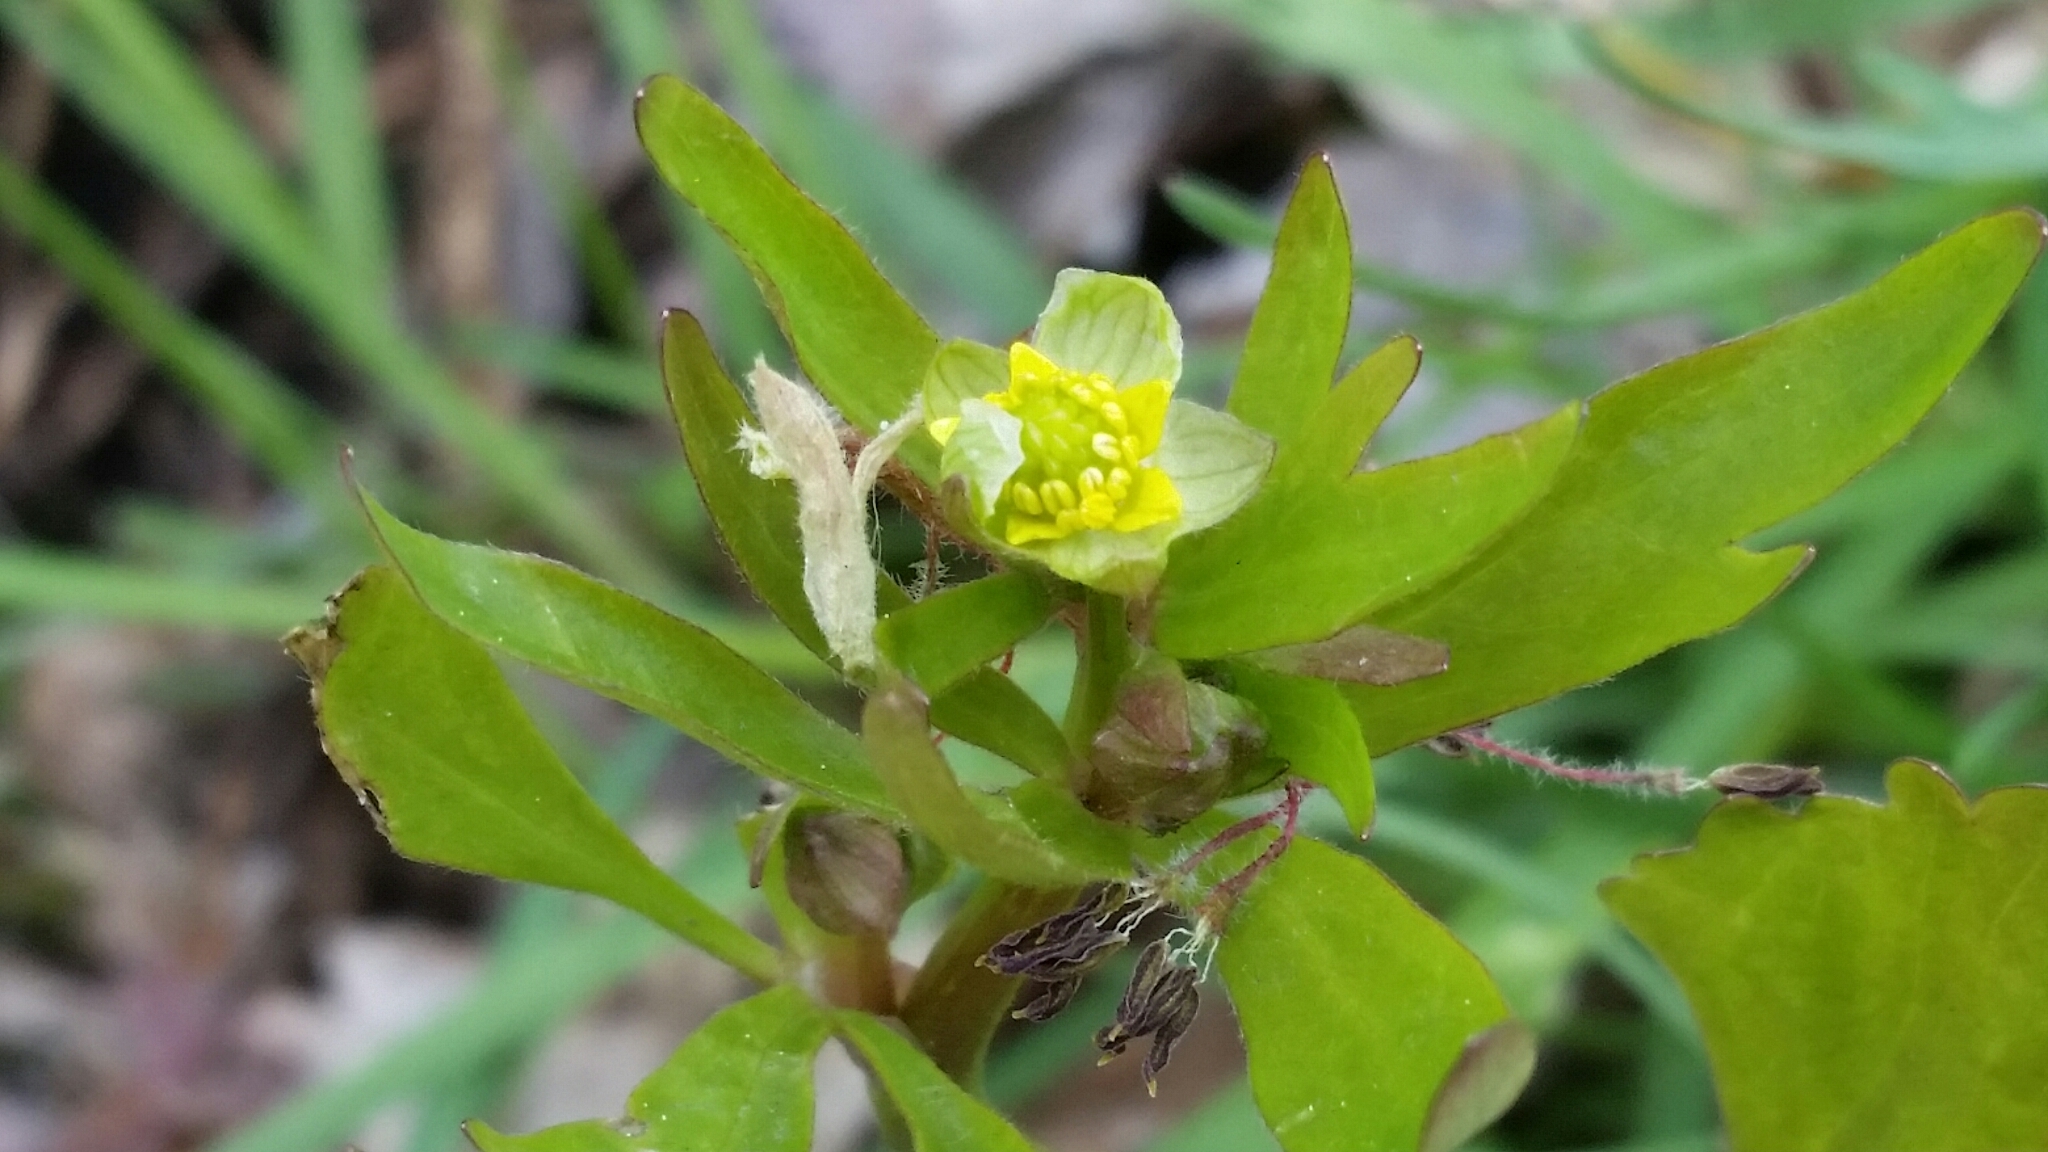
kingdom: Plantae
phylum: Tracheophyta
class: Magnoliopsida
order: Ranunculales
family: Ranunculaceae
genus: Ranunculus
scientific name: Ranunculus abortivus
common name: Early wood buttercup
